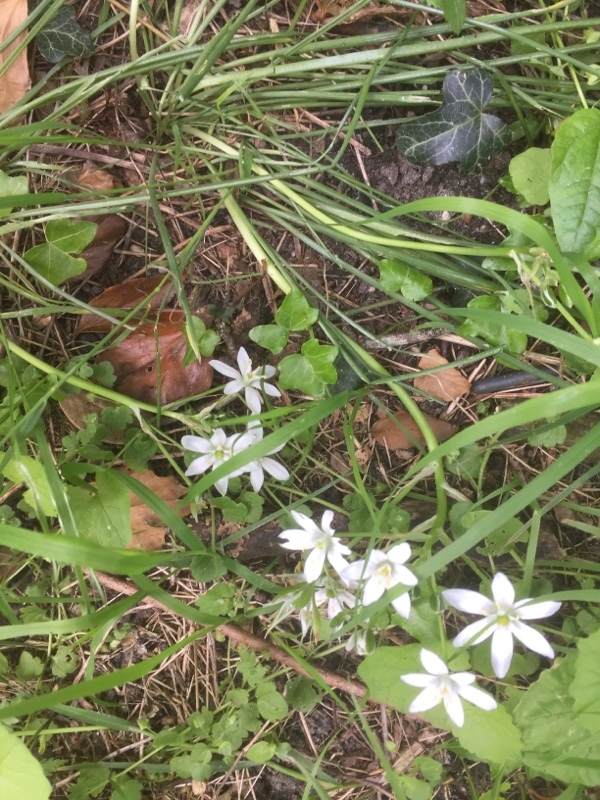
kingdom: Plantae
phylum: Tracheophyta
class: Liliopsida
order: Asparagales
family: Asparagaceae
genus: Ornithogalum
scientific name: Ornithogalum umbellatum
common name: Garden star-of-bethlehem
